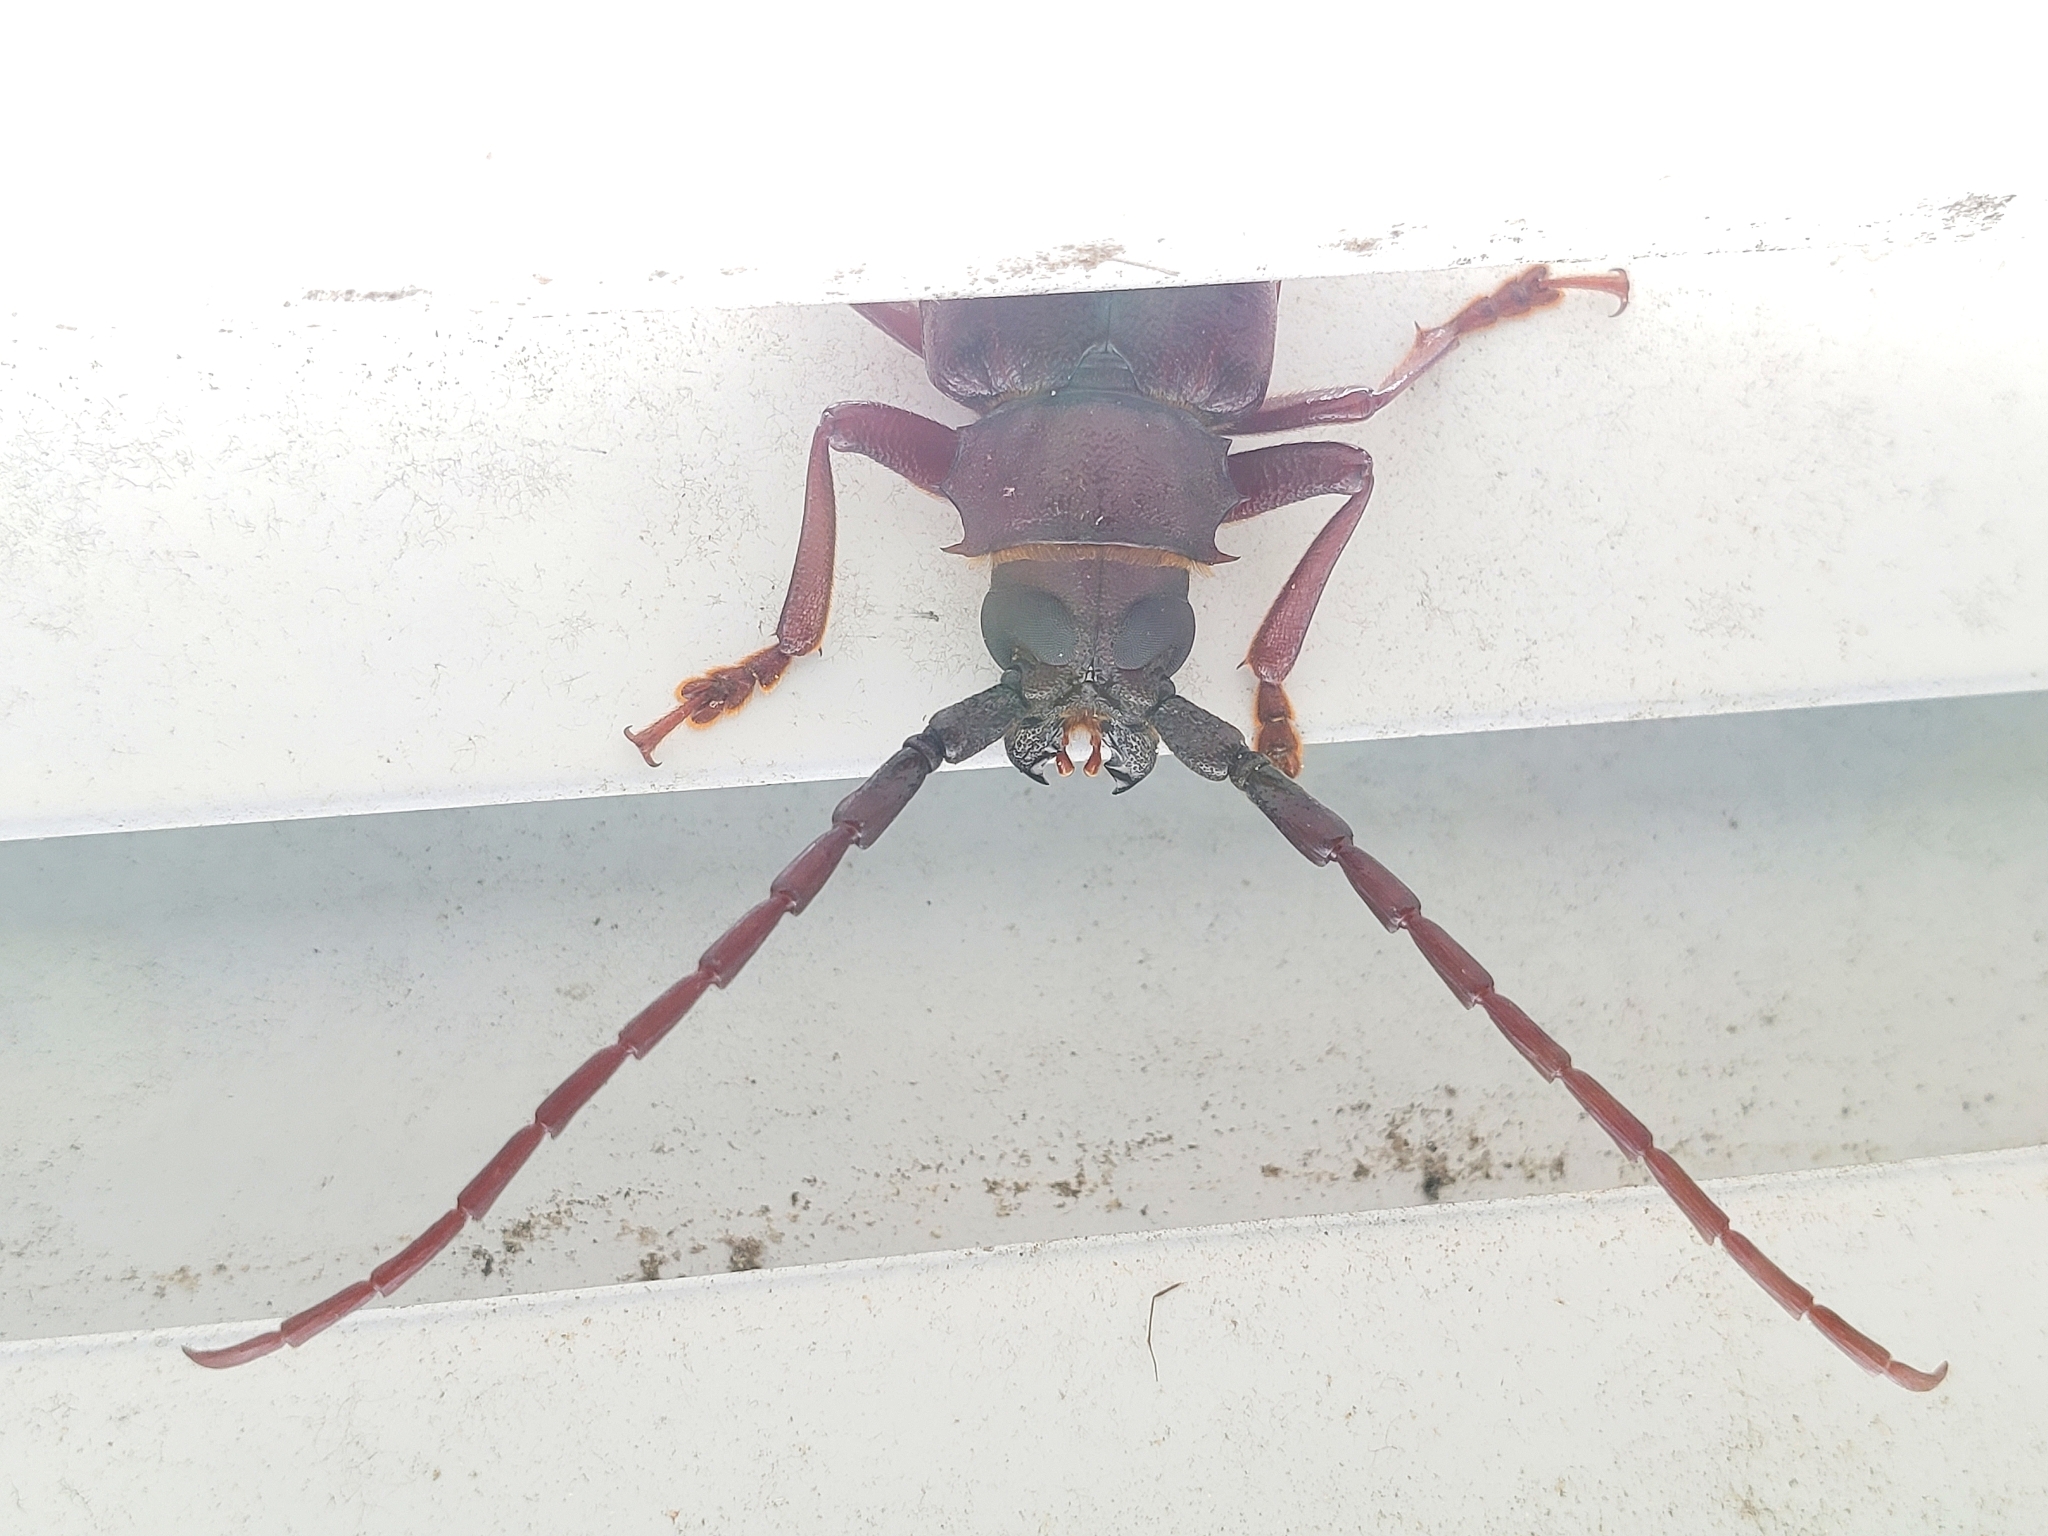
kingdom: Animalia
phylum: Arthropoda
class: Insecta
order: Coleoptera
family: Cerambycidae
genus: Orthosoma
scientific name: Orthosoma brunneum
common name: Brown prionid beetle
